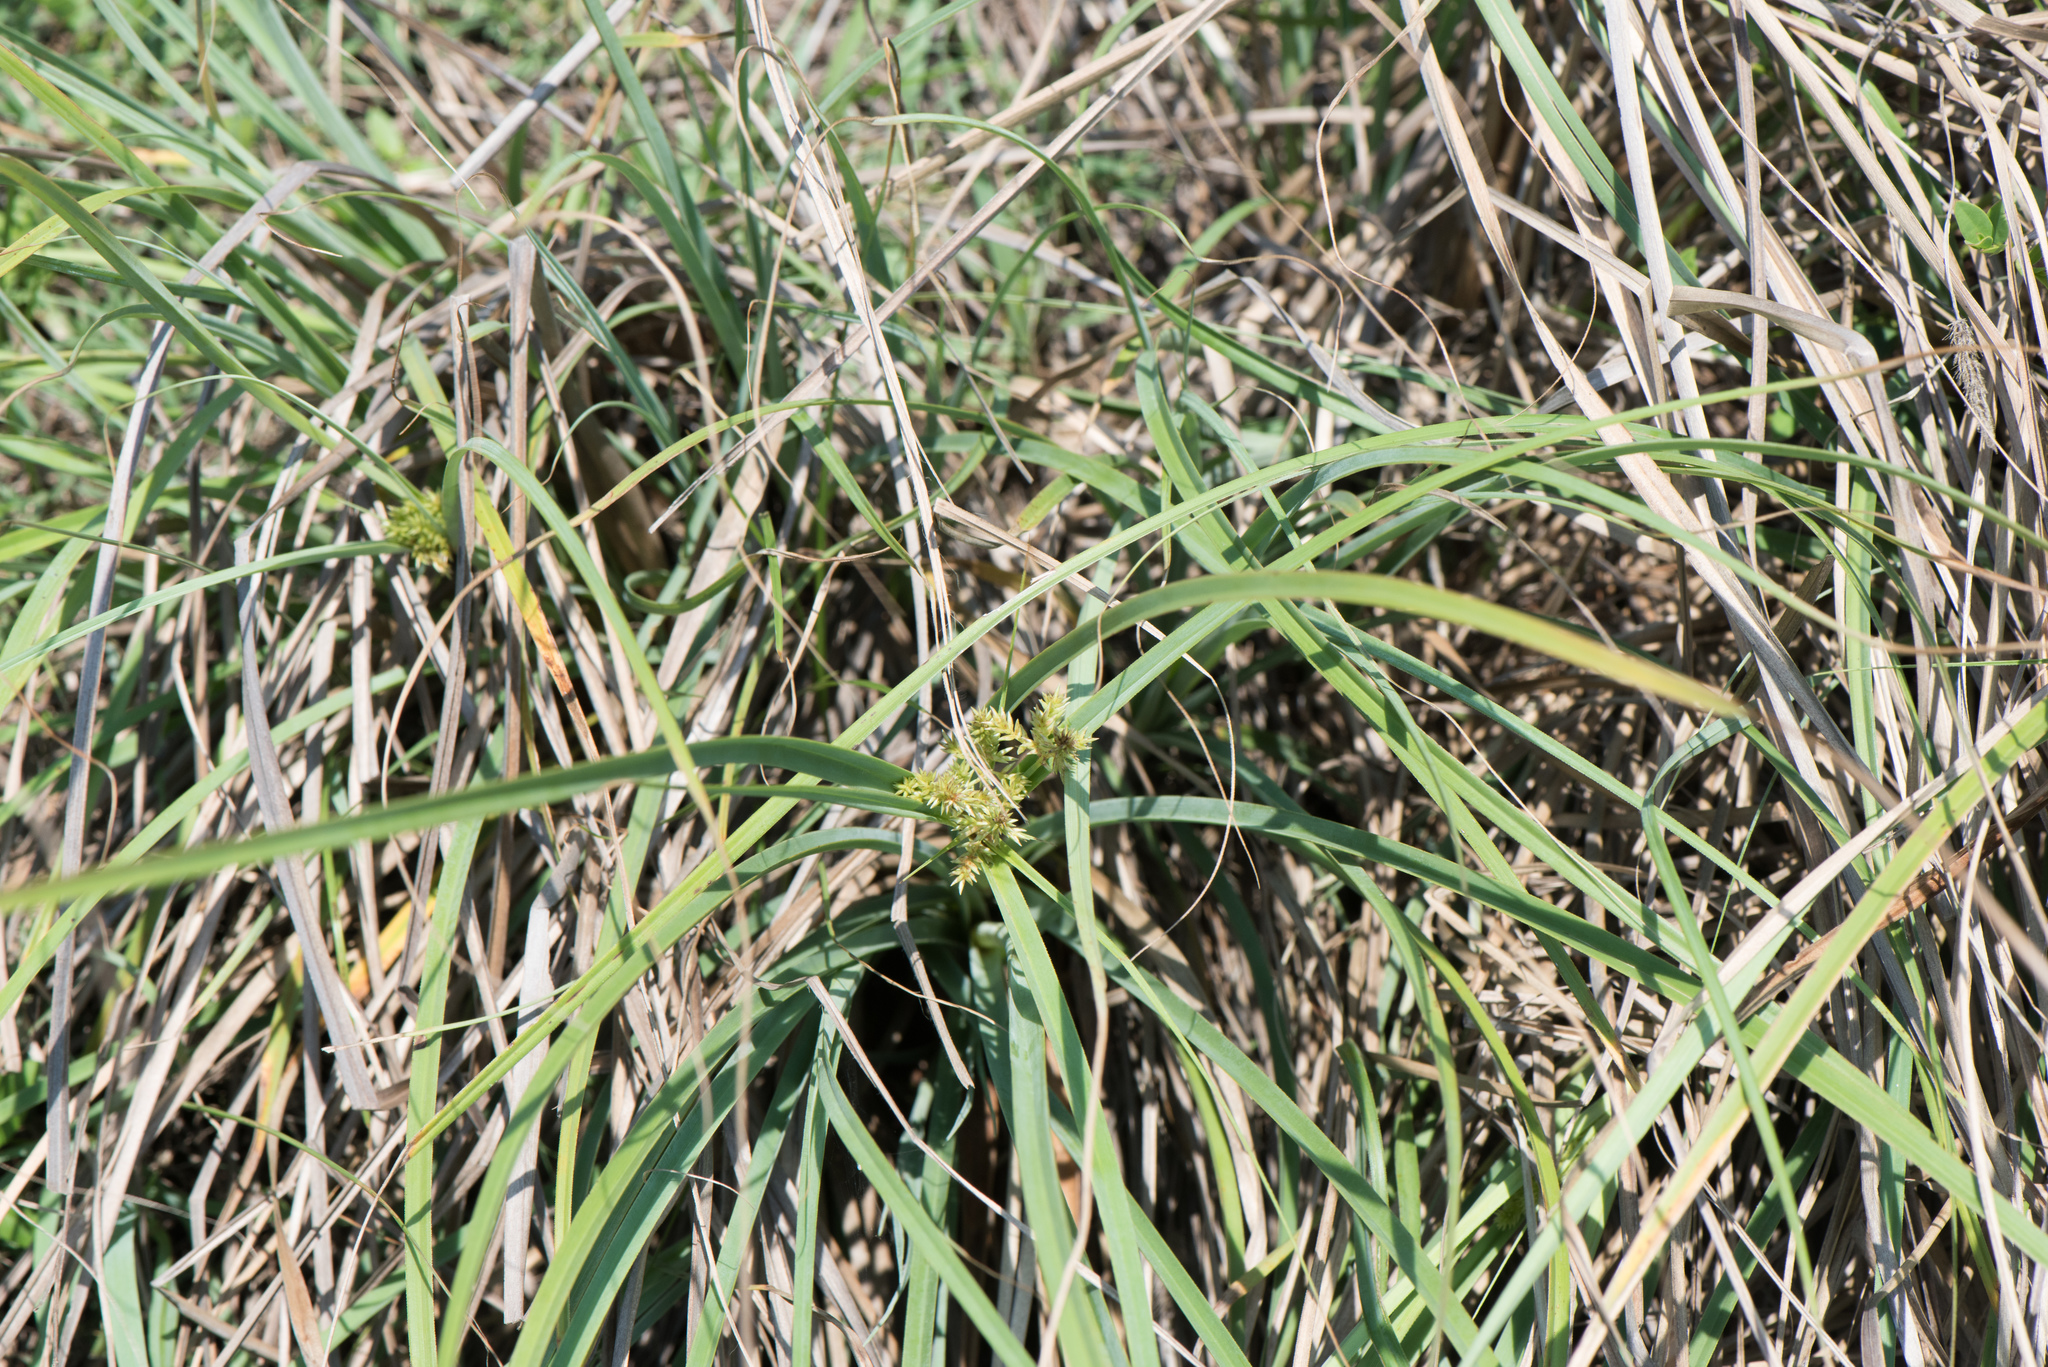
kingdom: Plantae
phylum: Tracheophyta
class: Liliopsida
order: Poales
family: Cyperaceae
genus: Cyperus
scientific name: Cyperus javanicus
